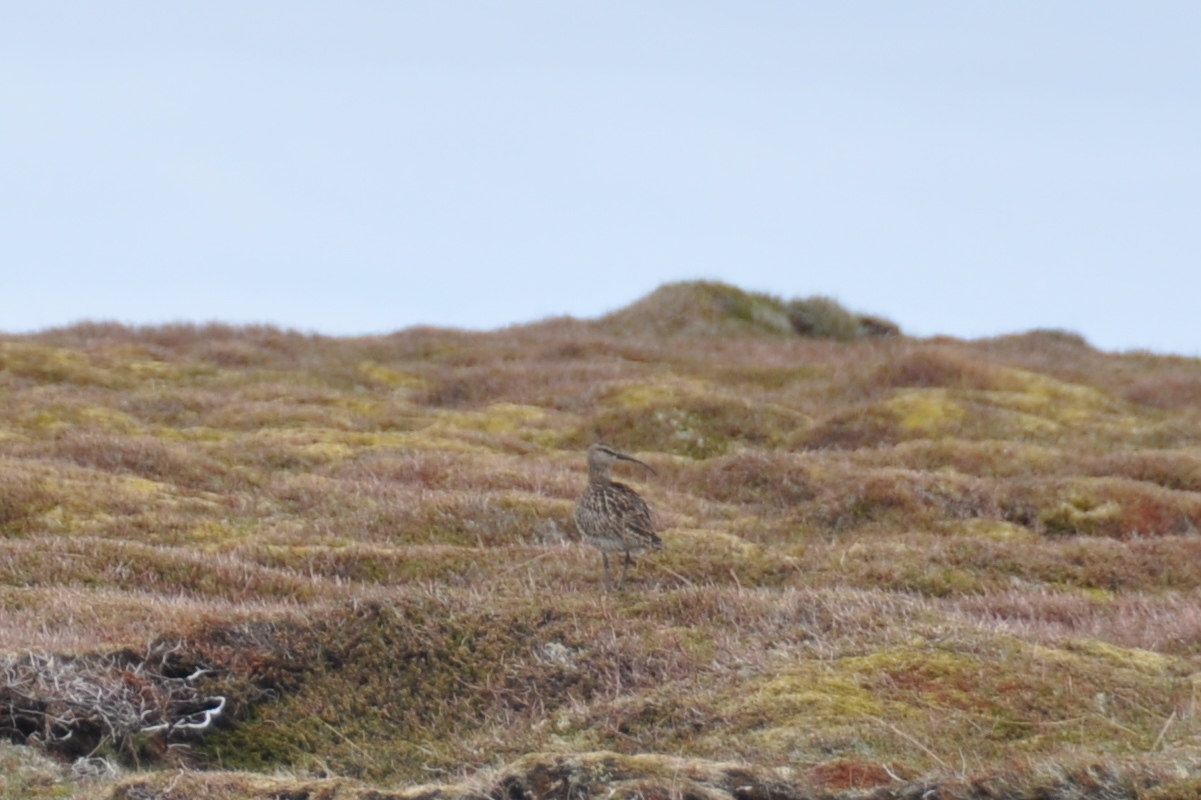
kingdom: Animalia
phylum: Chordata
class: Aves
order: Charadriiformes
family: Scolopacidae
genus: Numenius
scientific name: Numenius phaeopus
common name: Whimbrel
